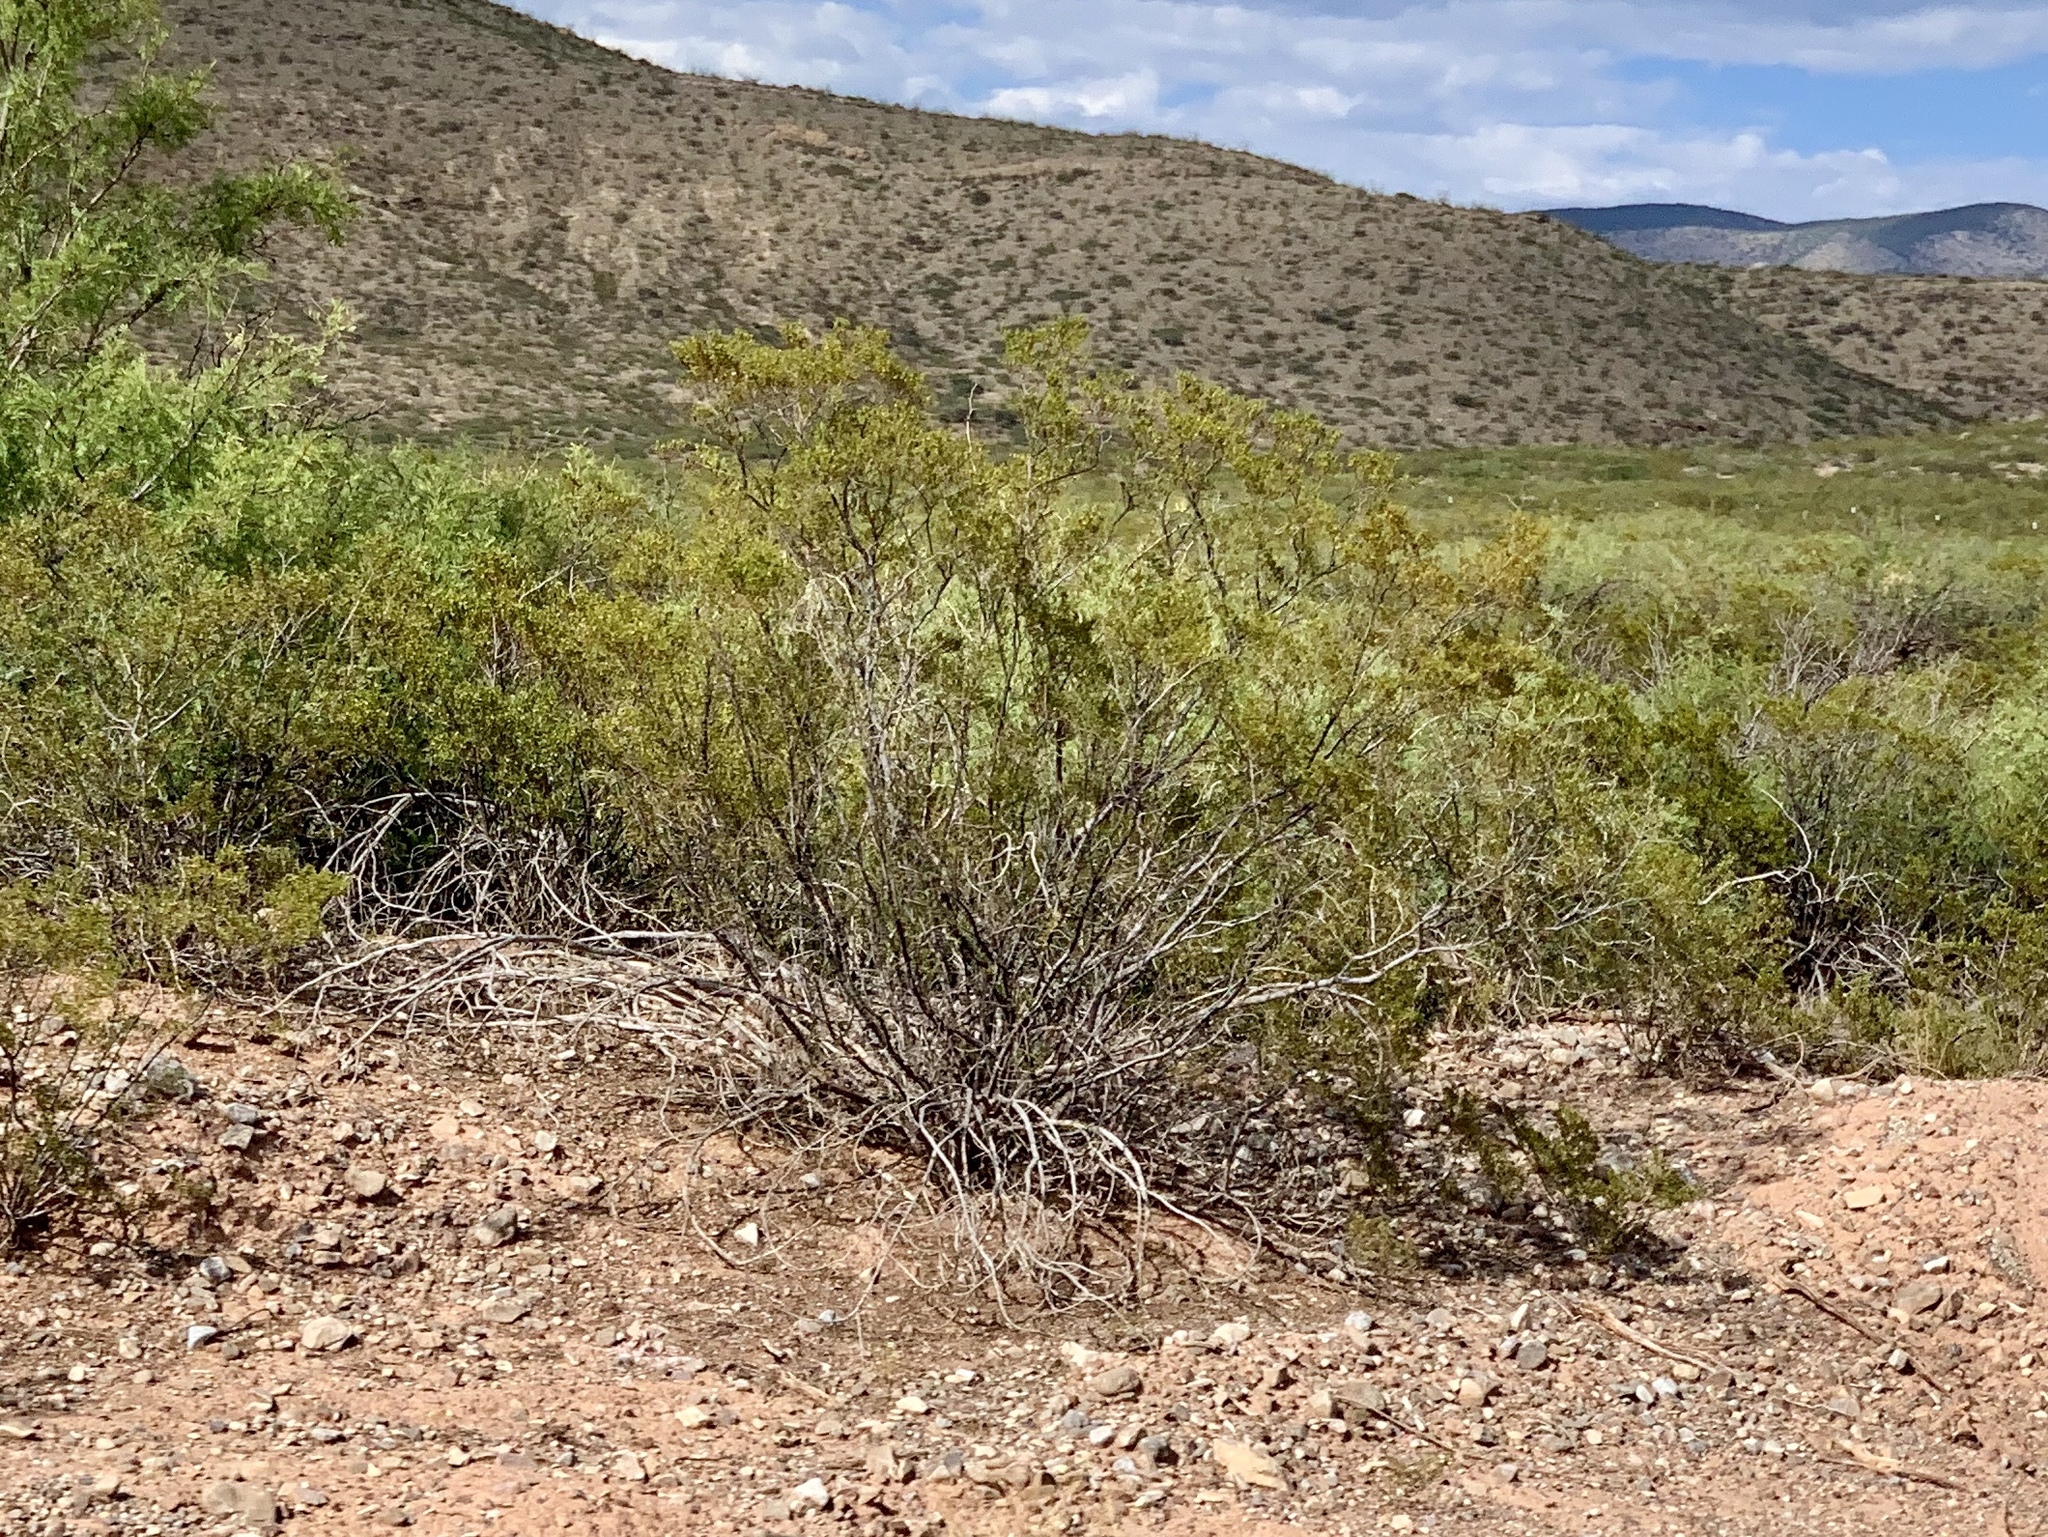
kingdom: Plantae
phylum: Tracheophyta
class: Magnoliopsida
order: Zygophyllales
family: Zygophyllaceae
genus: Larrea
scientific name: Larrea tridentata
